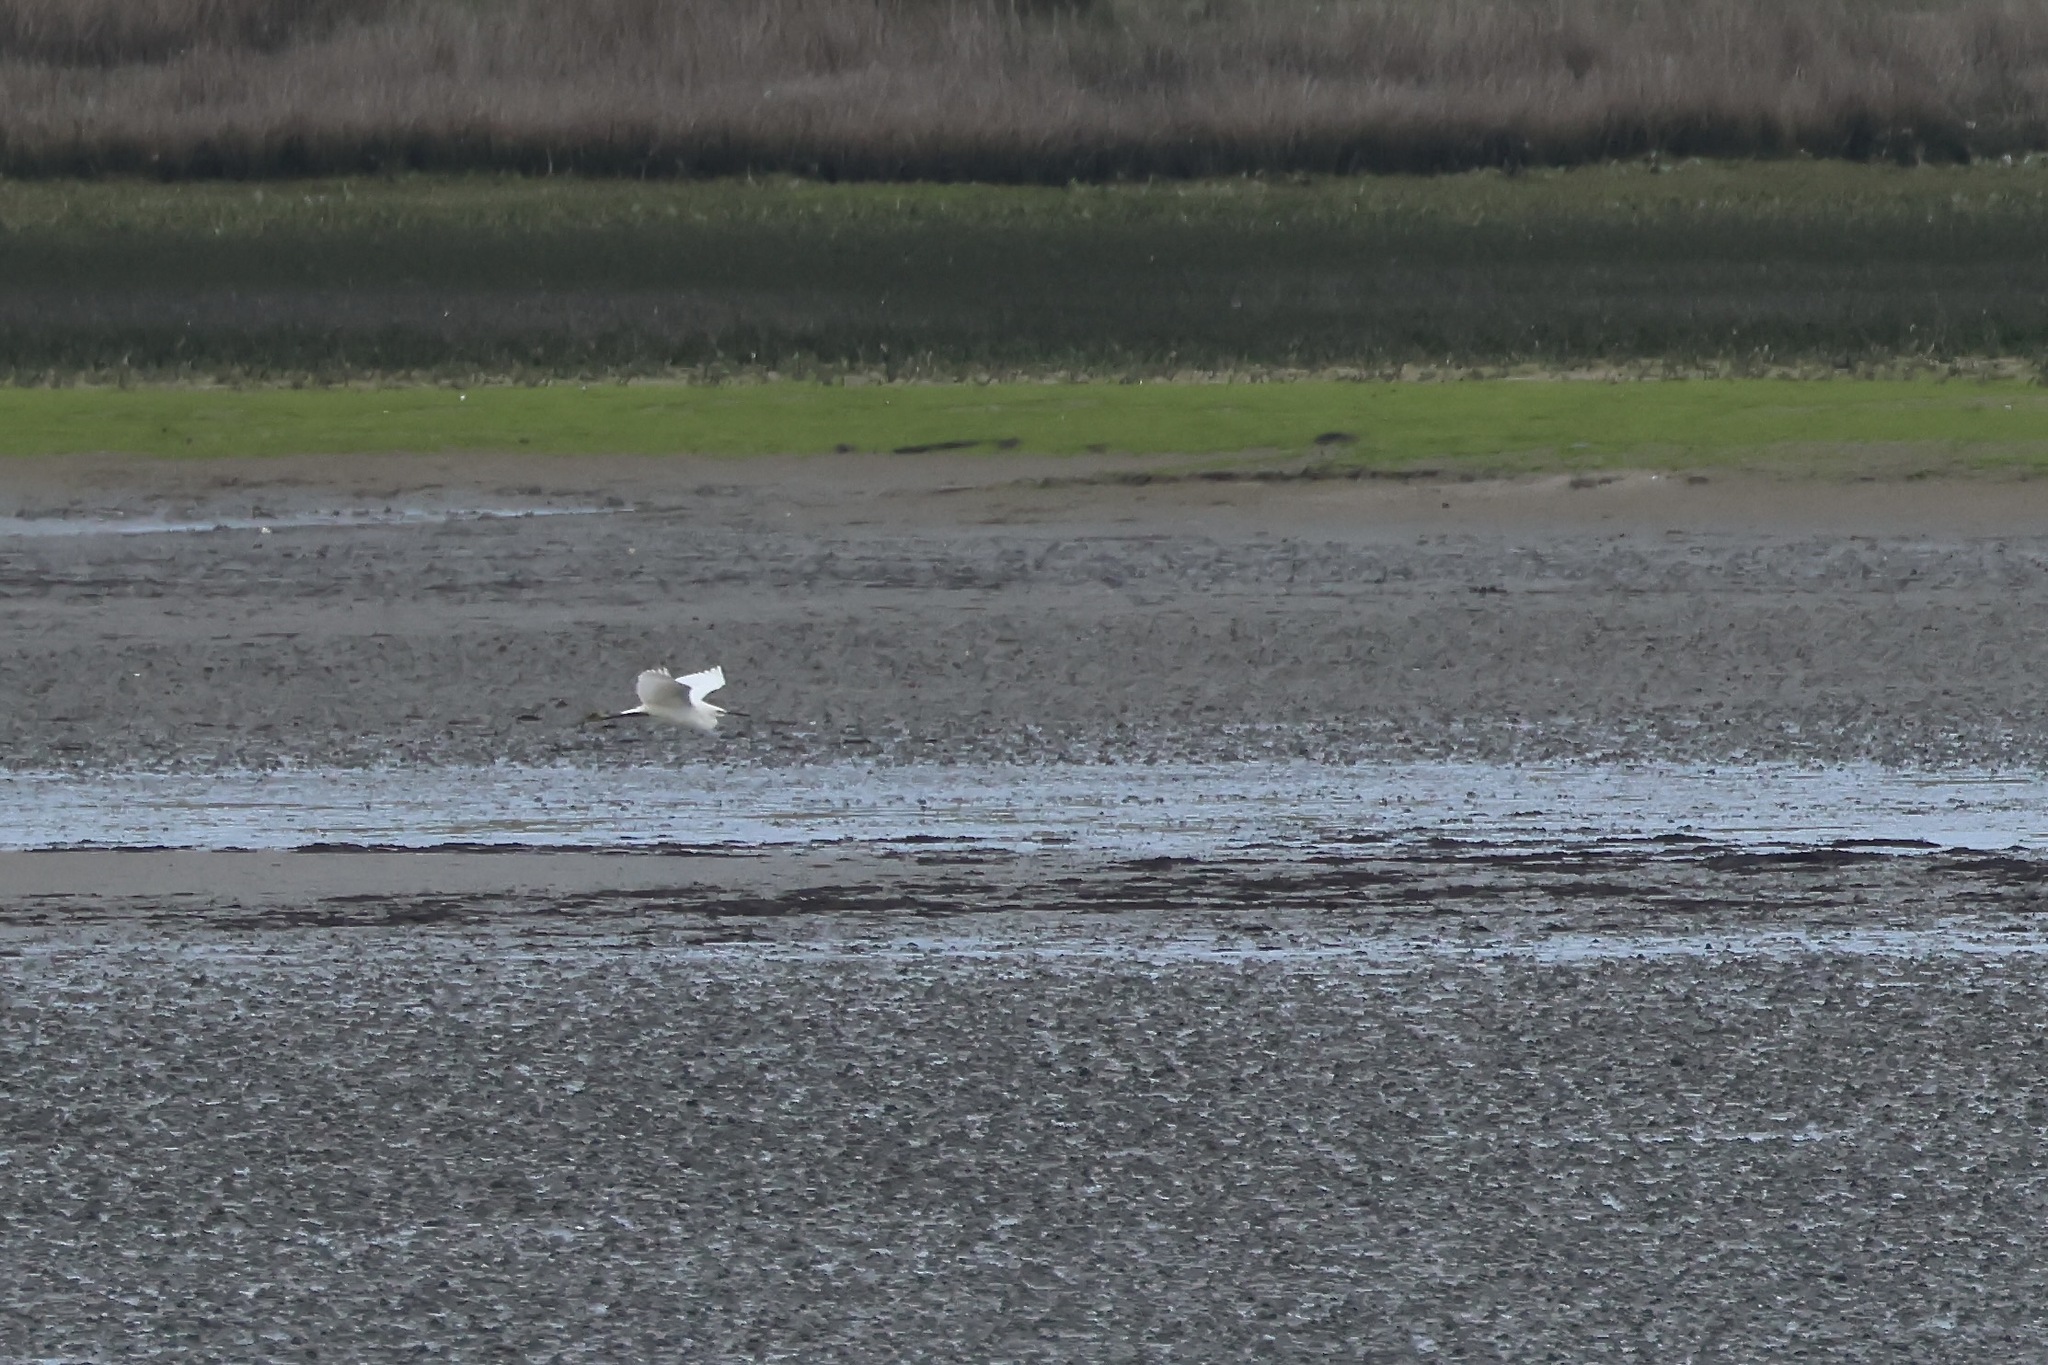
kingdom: Animalia
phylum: Chordata
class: Aves
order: Pelecaniformes
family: Ardeidae
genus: Egretta
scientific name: Egretta garzetta
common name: Little egret
